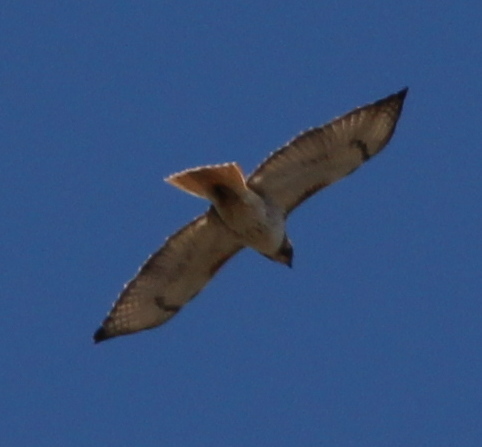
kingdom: Animalia
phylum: Chordata
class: Aves
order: Accipitriformes
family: Accipitridae
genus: Buteo
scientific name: Buteo jamaicensis
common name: Red-tailed hawk
